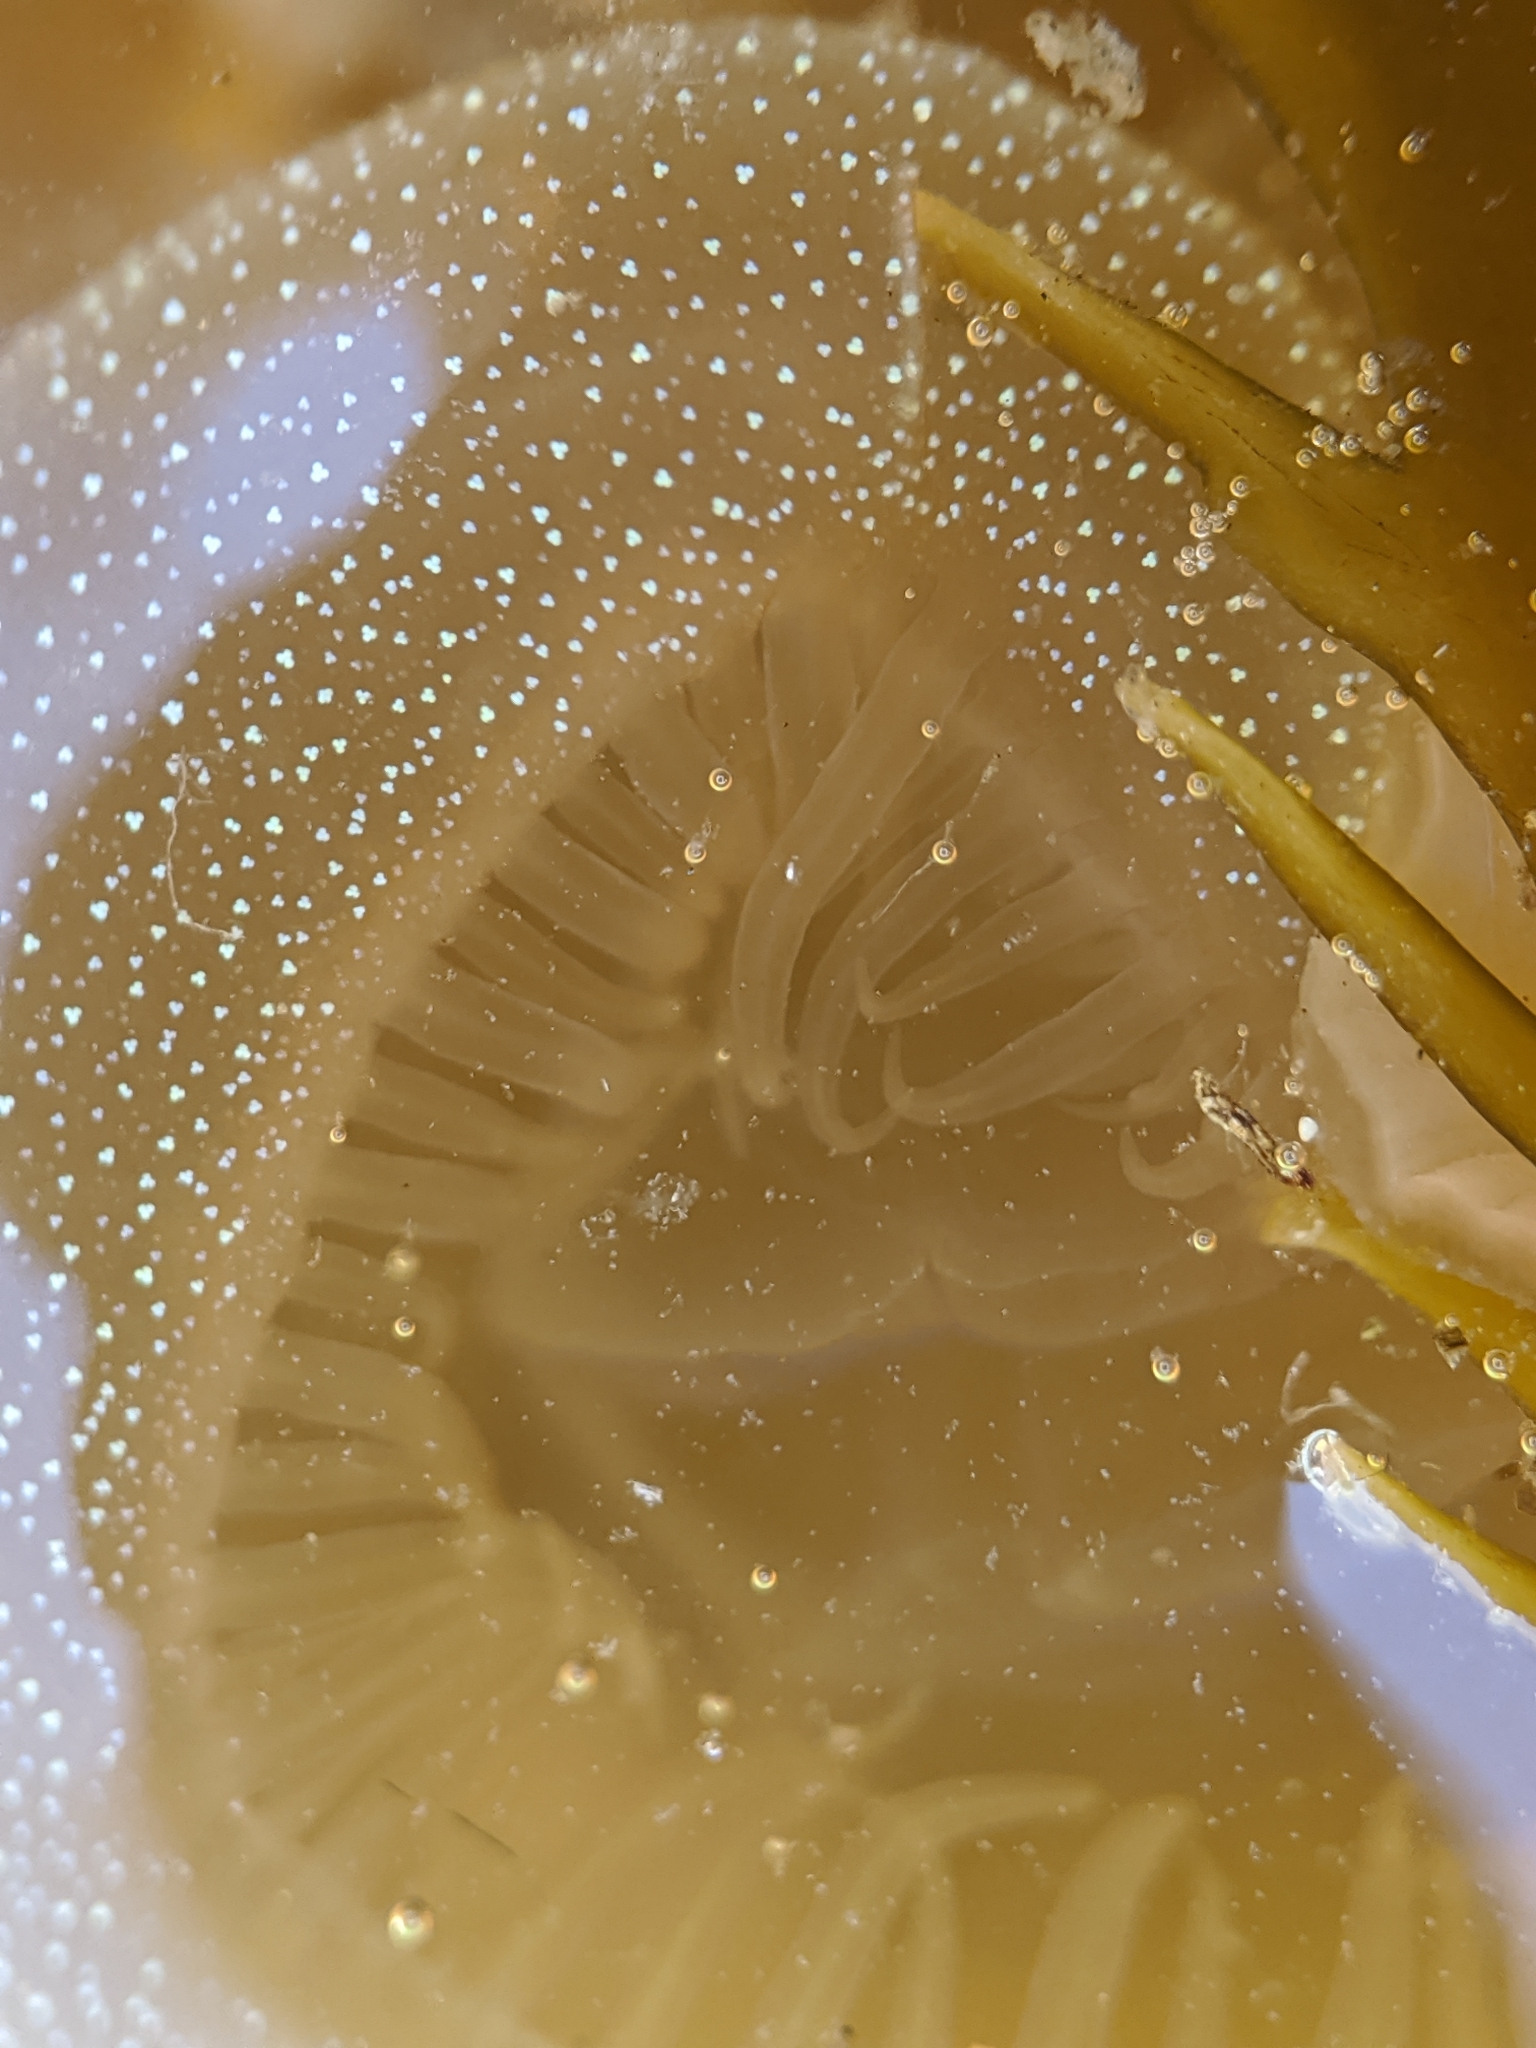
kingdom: Animalia
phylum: Mollusca
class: Gastropoda
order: Nudibranchia
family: Tethydidae
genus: Melibe
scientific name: Melibe leonina
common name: Lion nudibranch
